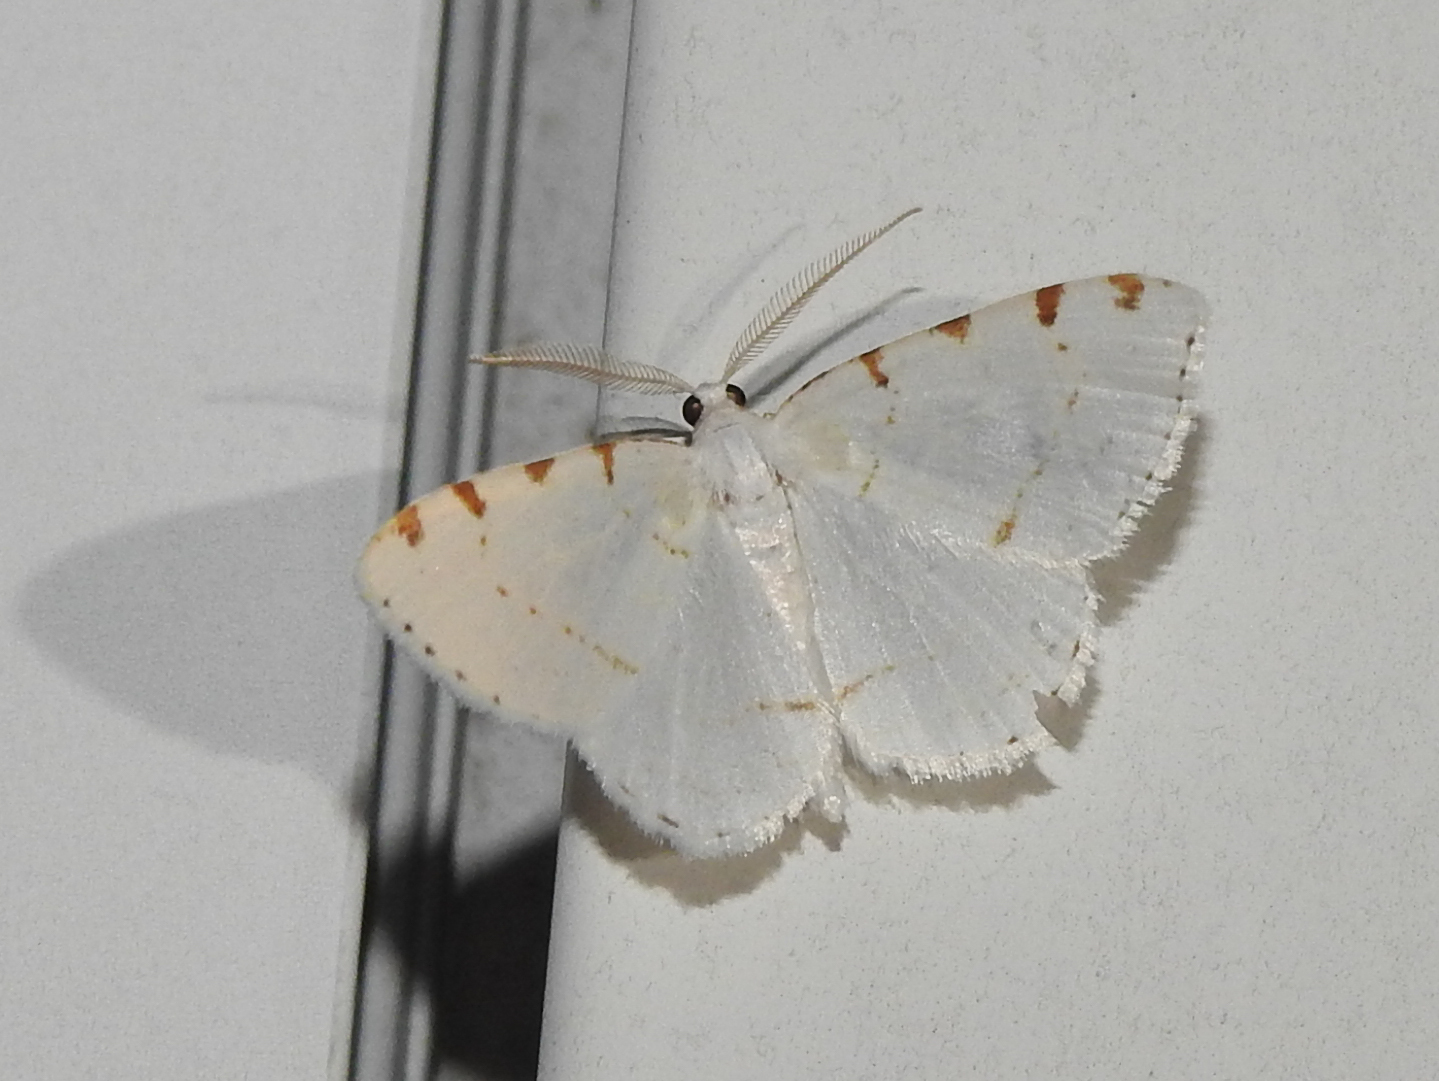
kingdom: Animalia
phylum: Arthropoda
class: Insecta
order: Lepidoptera
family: Geometridae
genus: Macaria
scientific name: Macaria pustularia
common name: Lesser maple spanworm moth
